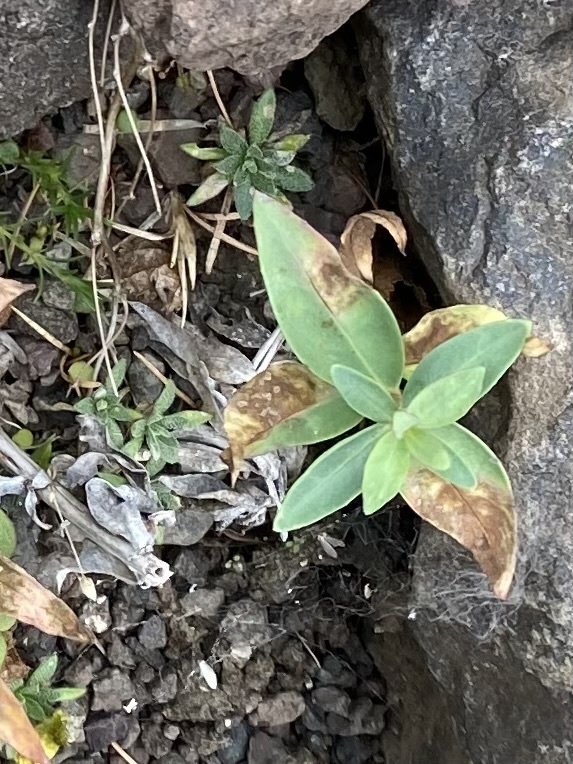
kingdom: Plantae
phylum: Tracheophyta
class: Magnoliopsida
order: Myrtales
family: Onagraceae
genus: Chamaenerion
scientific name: Chamaenerion latifolium
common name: Dwarf fireweed
